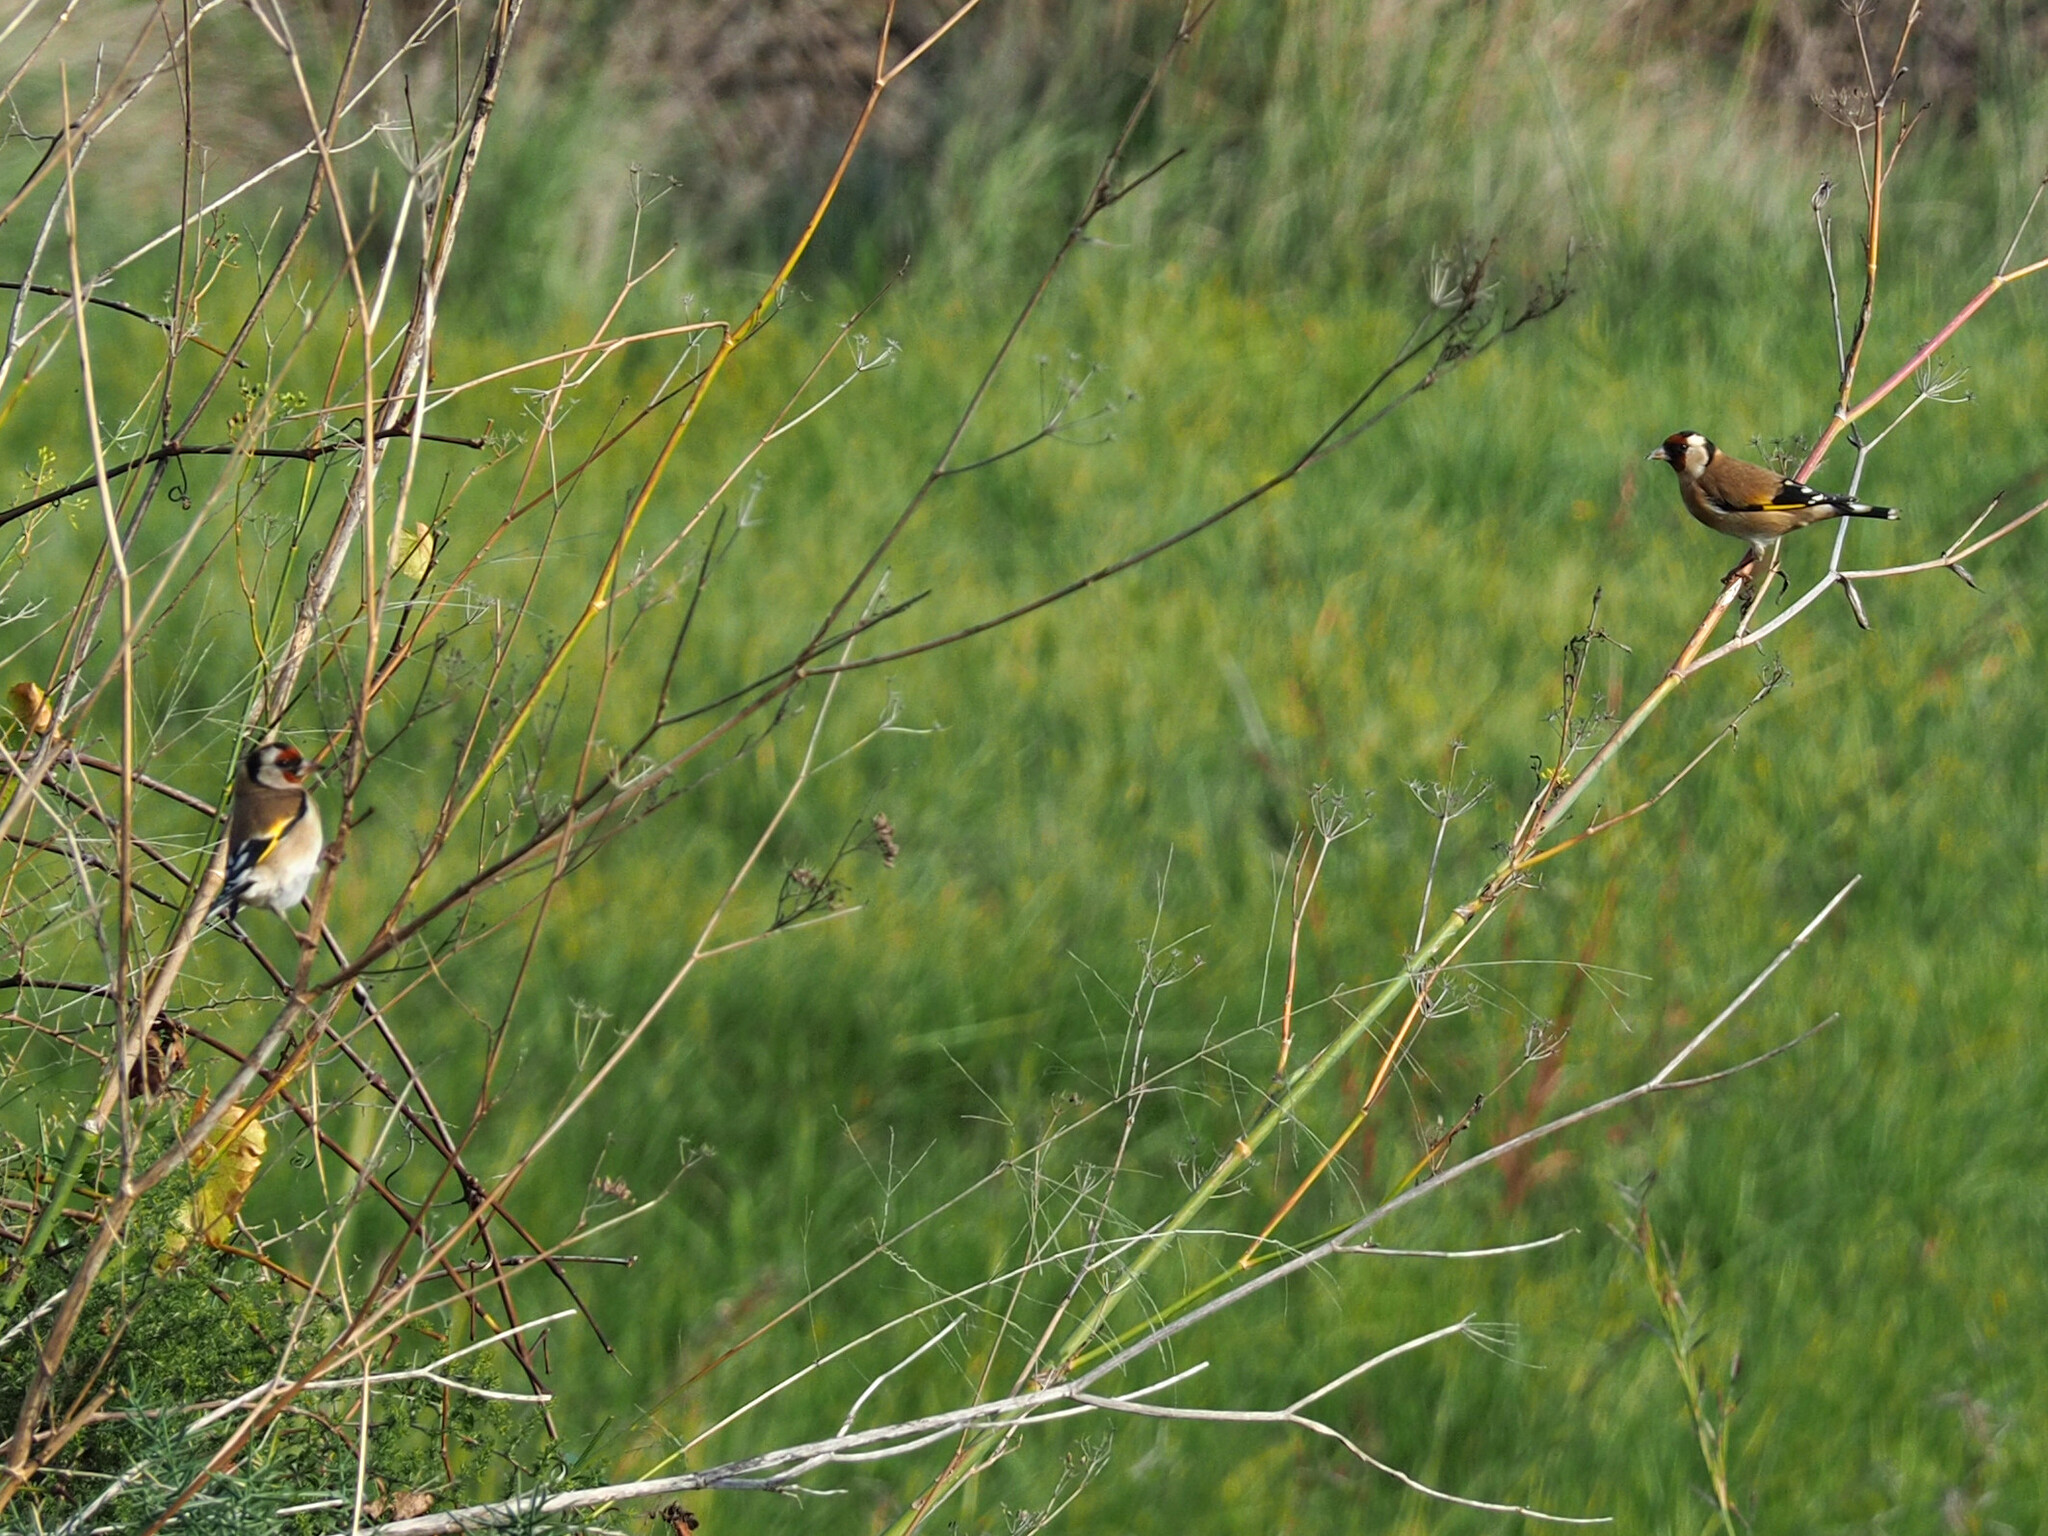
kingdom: Animalia
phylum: Chordata
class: Aves
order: Passeriformes
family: Fringillidae
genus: Carduelis
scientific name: Carduelis carduelis
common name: European goldfinch
